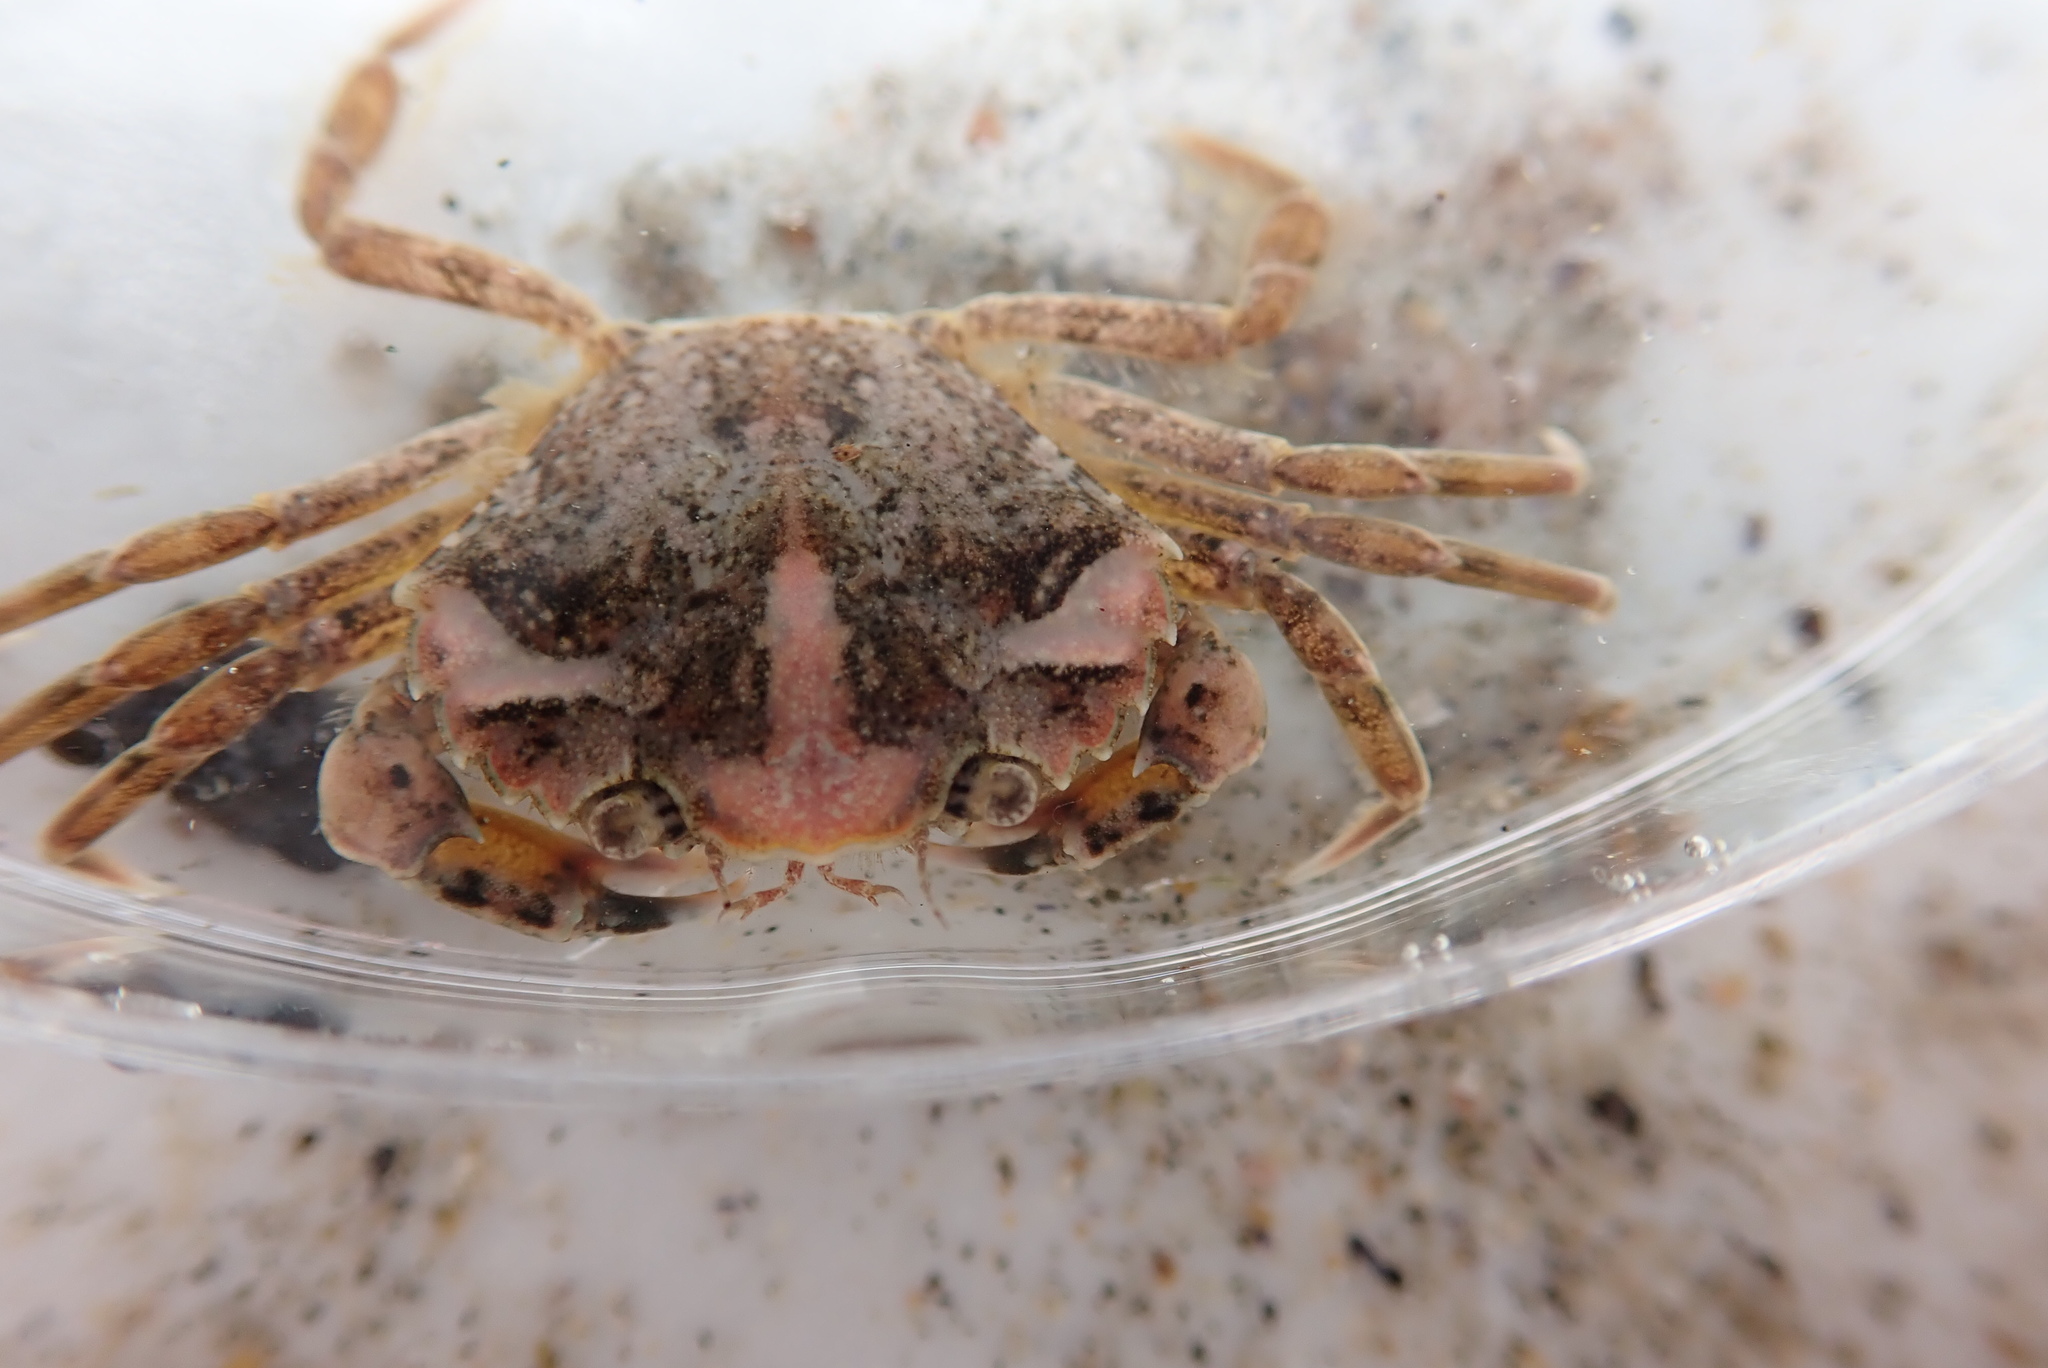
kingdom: Animalia
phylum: Arthropoda
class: Malacostraca
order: Decapoda
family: Carcinidae
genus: Carcinus
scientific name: Carcinus maenas
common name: European green crab
